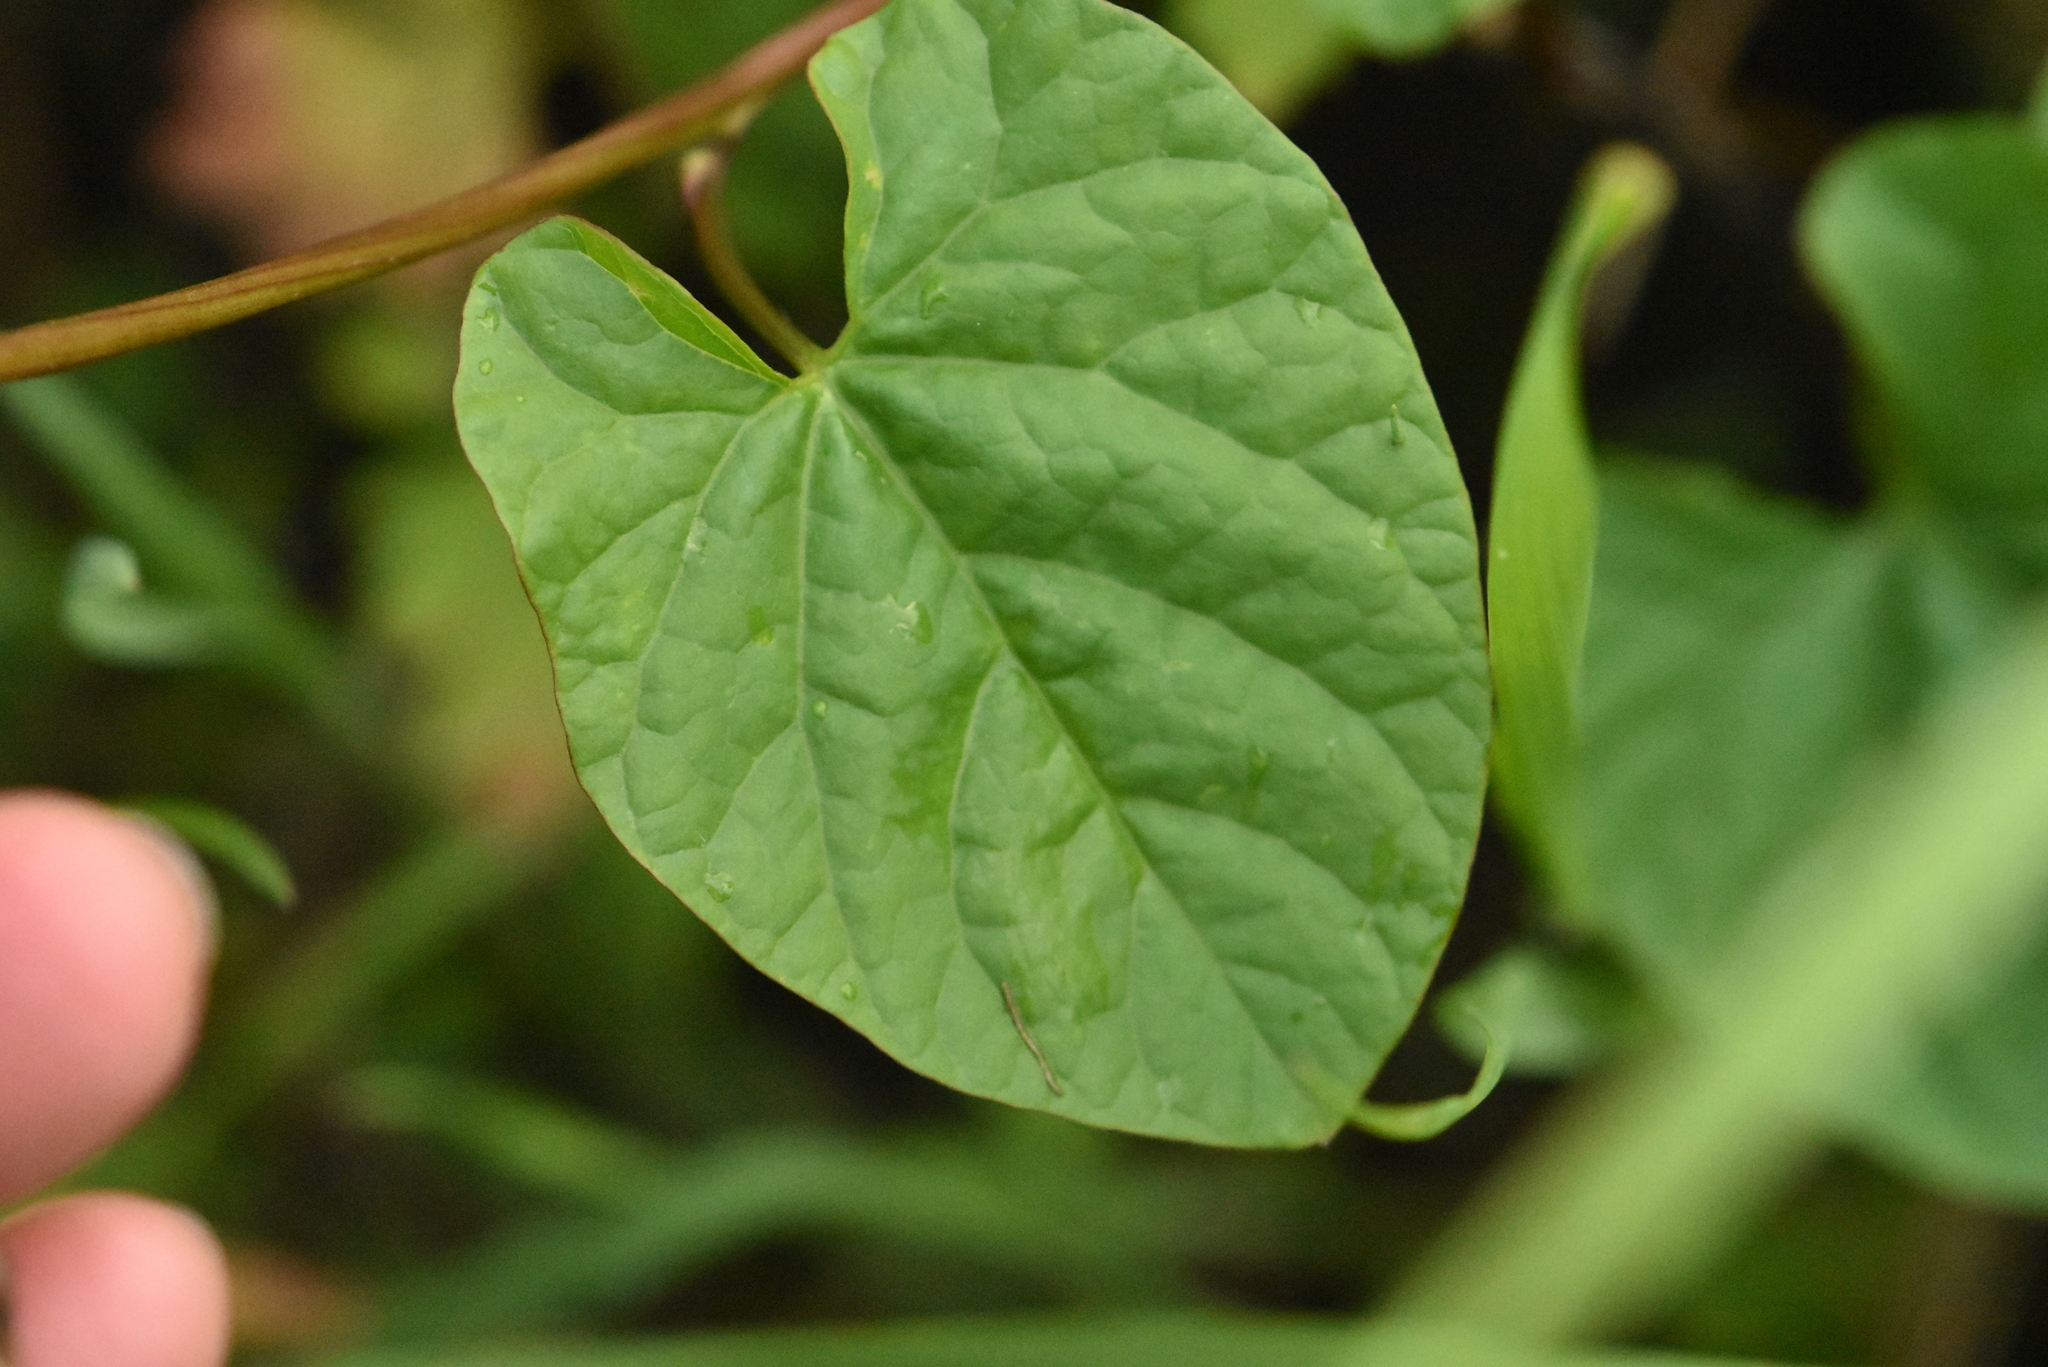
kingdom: Plantae
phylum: Tracheophyta
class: Magnoliopsida
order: Solanales
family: Convolvulaceae
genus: Calystegia
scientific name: Calystegia sepium
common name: Hedge bindweed
